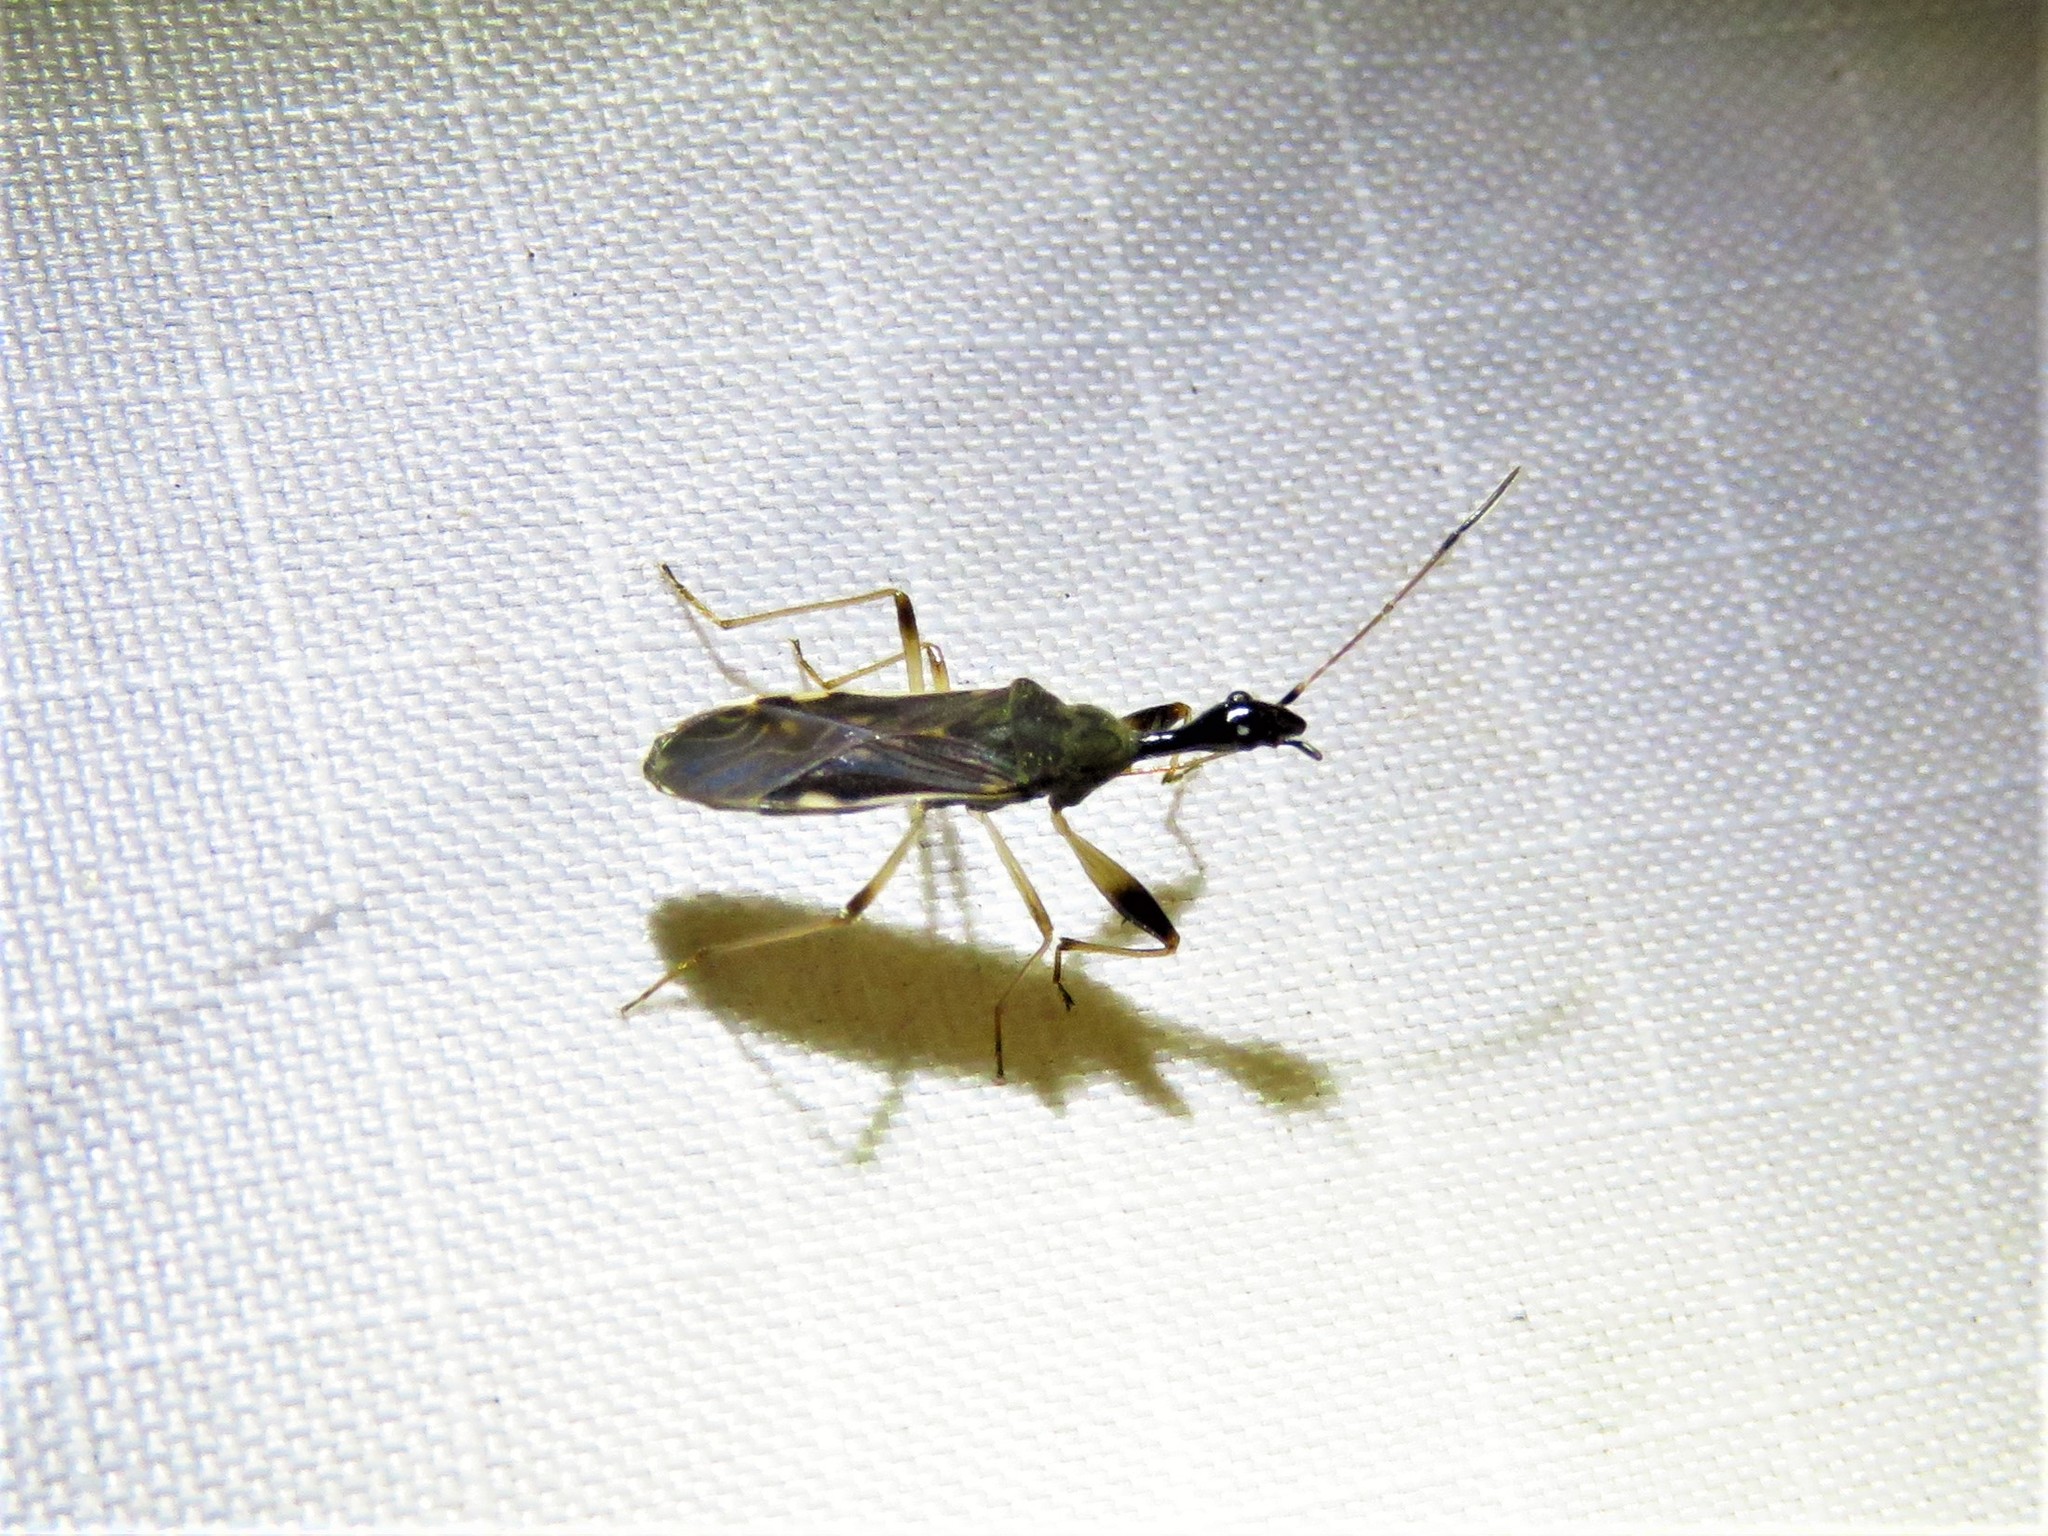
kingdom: Animalia
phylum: Arthropoda
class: Insecta
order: Hemiptera
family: Rhyparochromidae
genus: Myodocha
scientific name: Myodocha serripes
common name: Long-necked seed bug
